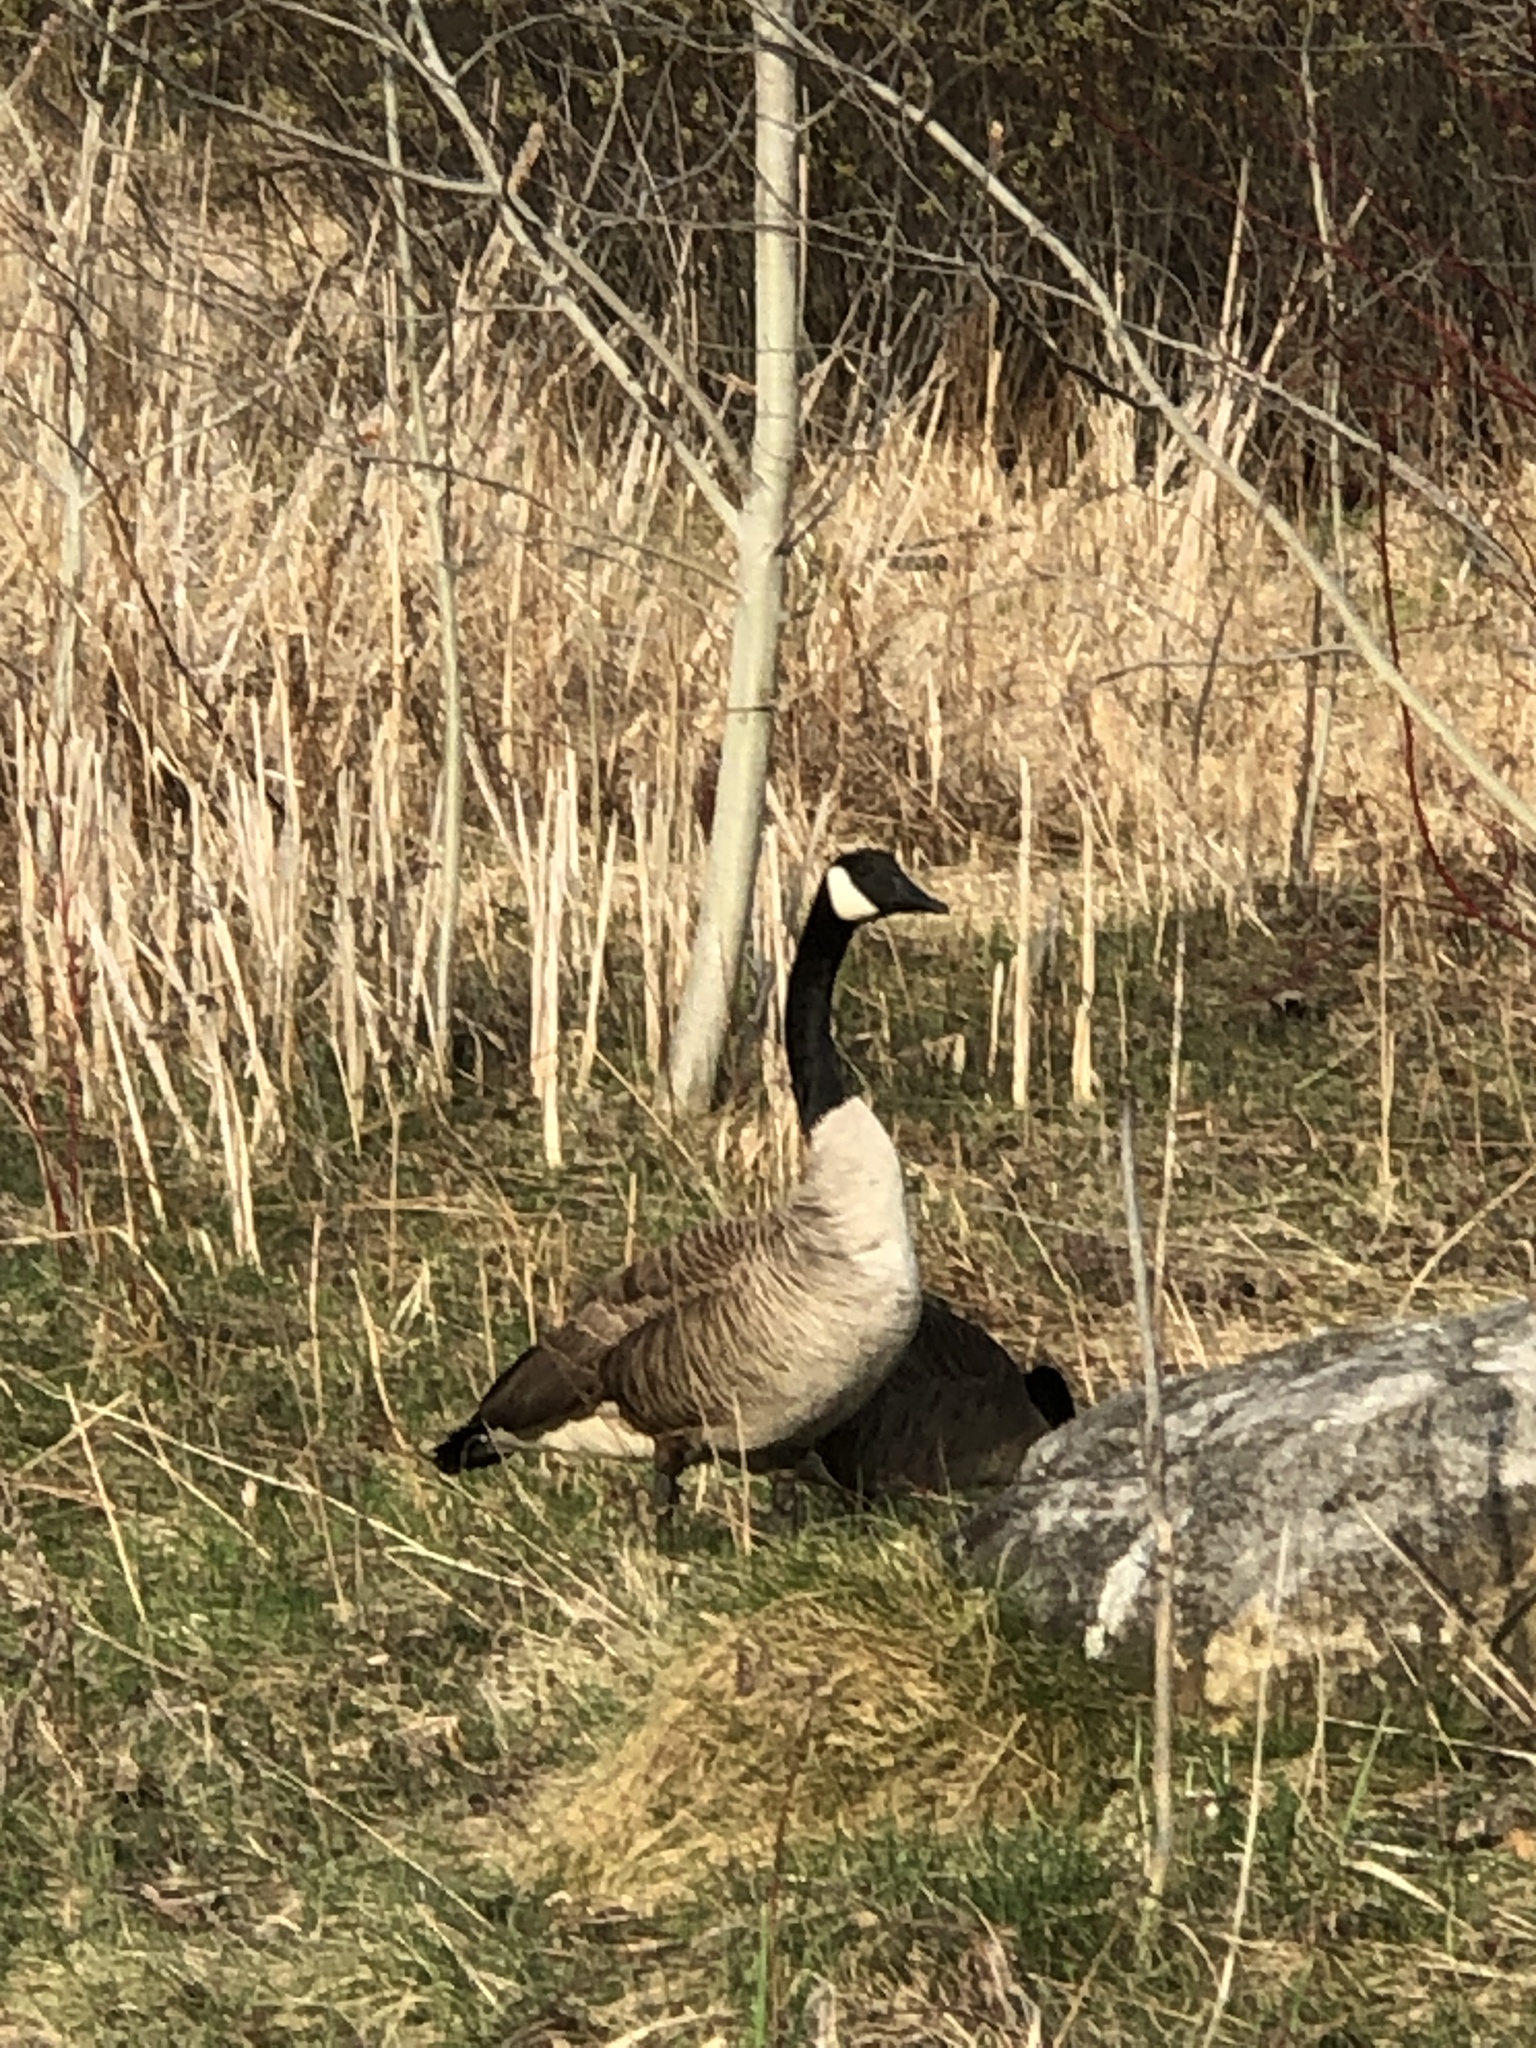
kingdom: Animalia
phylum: Chordata
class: Aves
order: Anseriformes
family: Anatidae
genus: Branta
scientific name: Branta canadensis
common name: Canada goose
